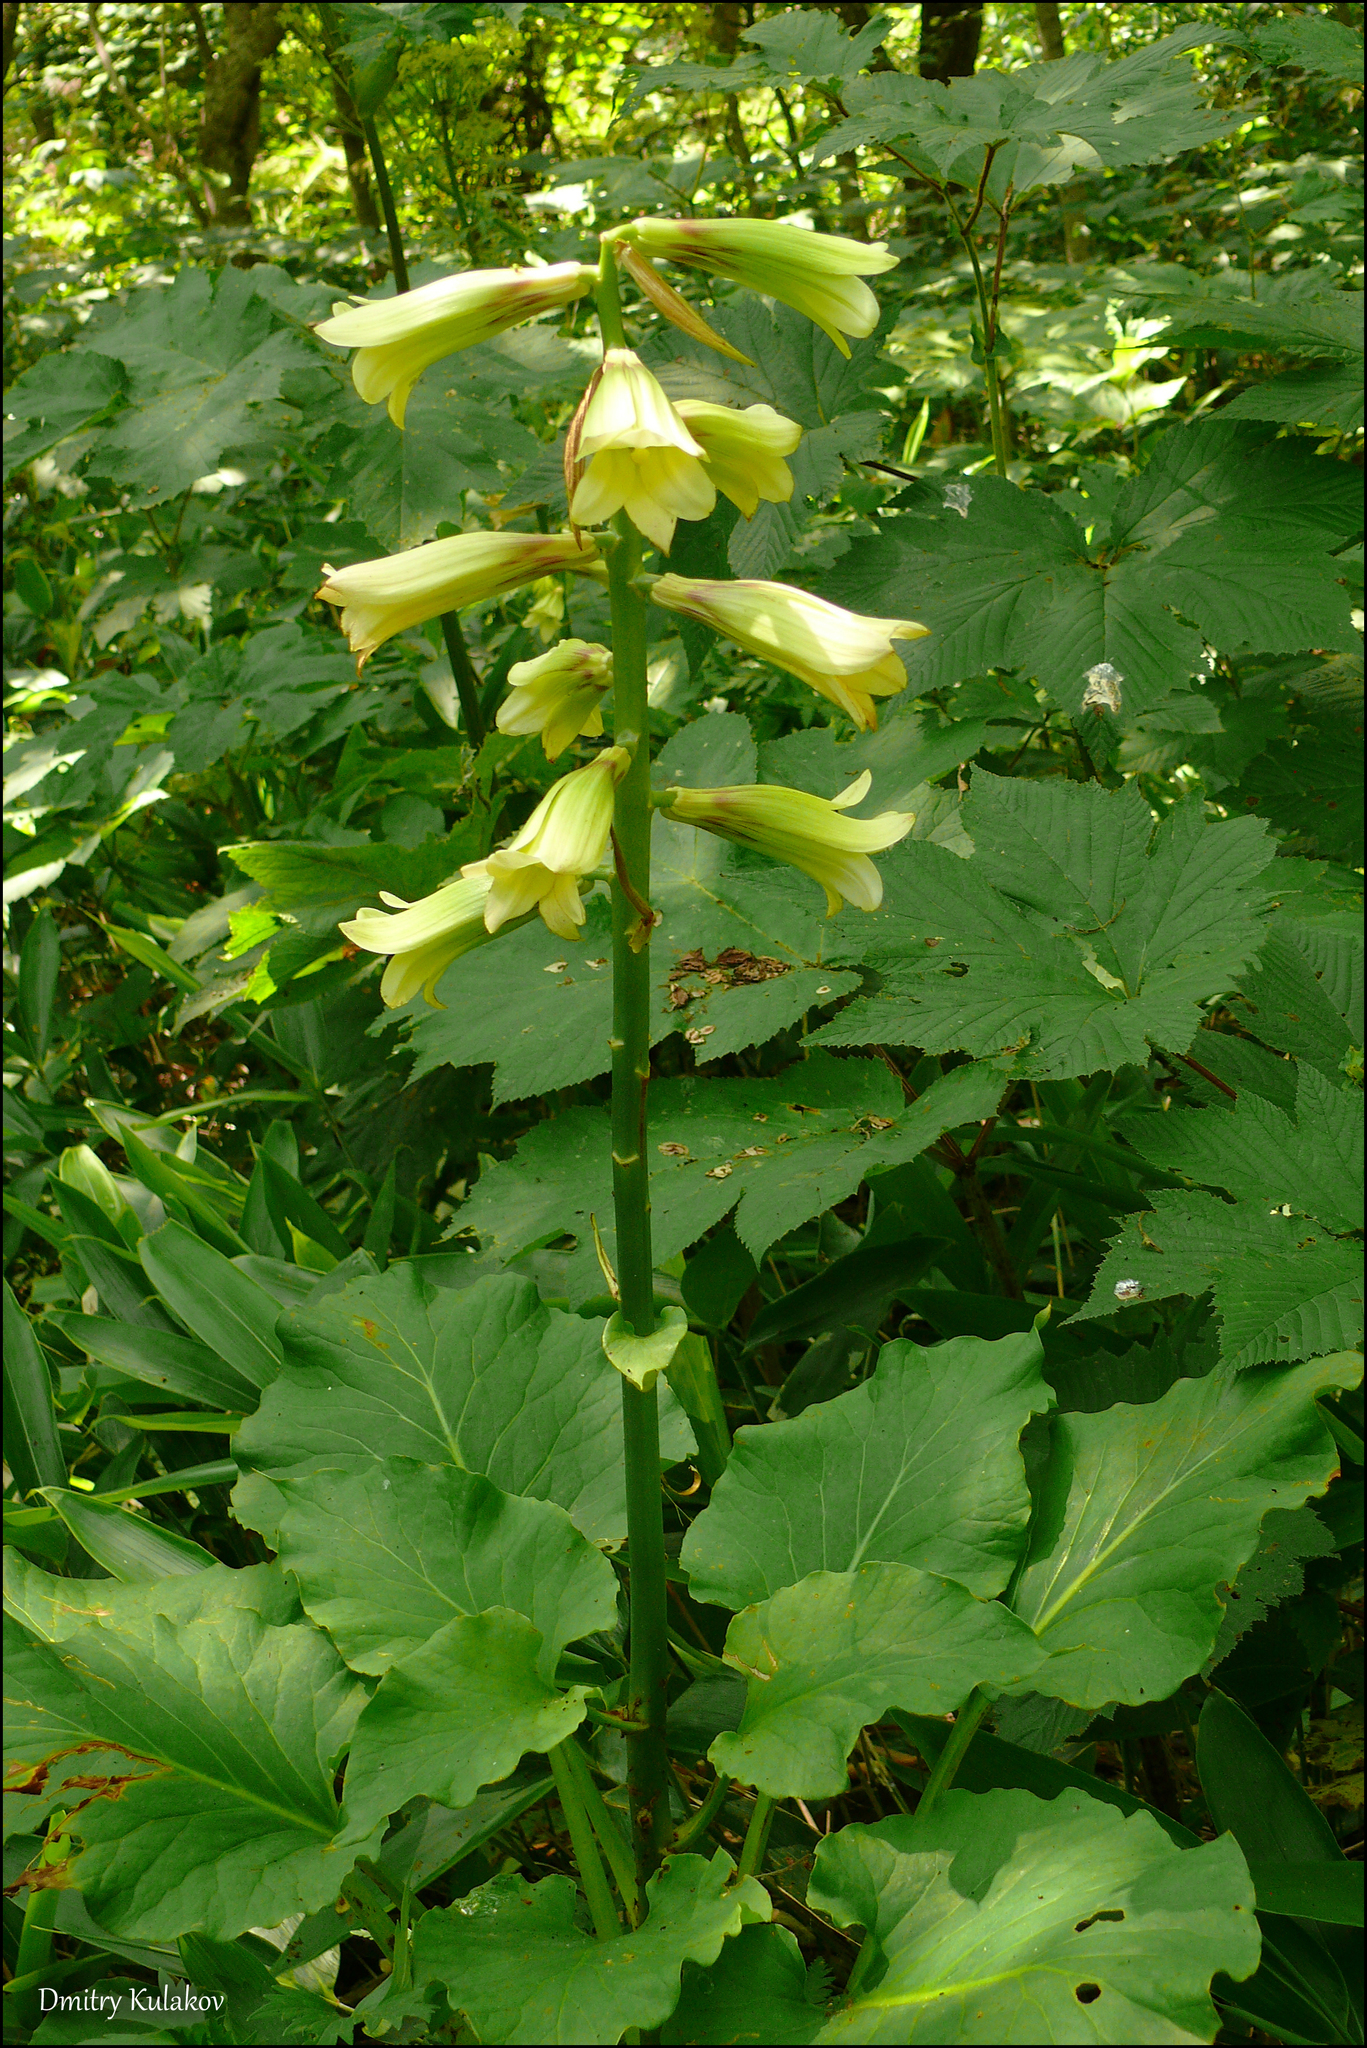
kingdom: Plantae
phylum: Tracheophyta
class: Liliopsida
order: Liliales
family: Liliaceae
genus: Cardiocrinum
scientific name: Cardiocrinum cordatum
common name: Lily
